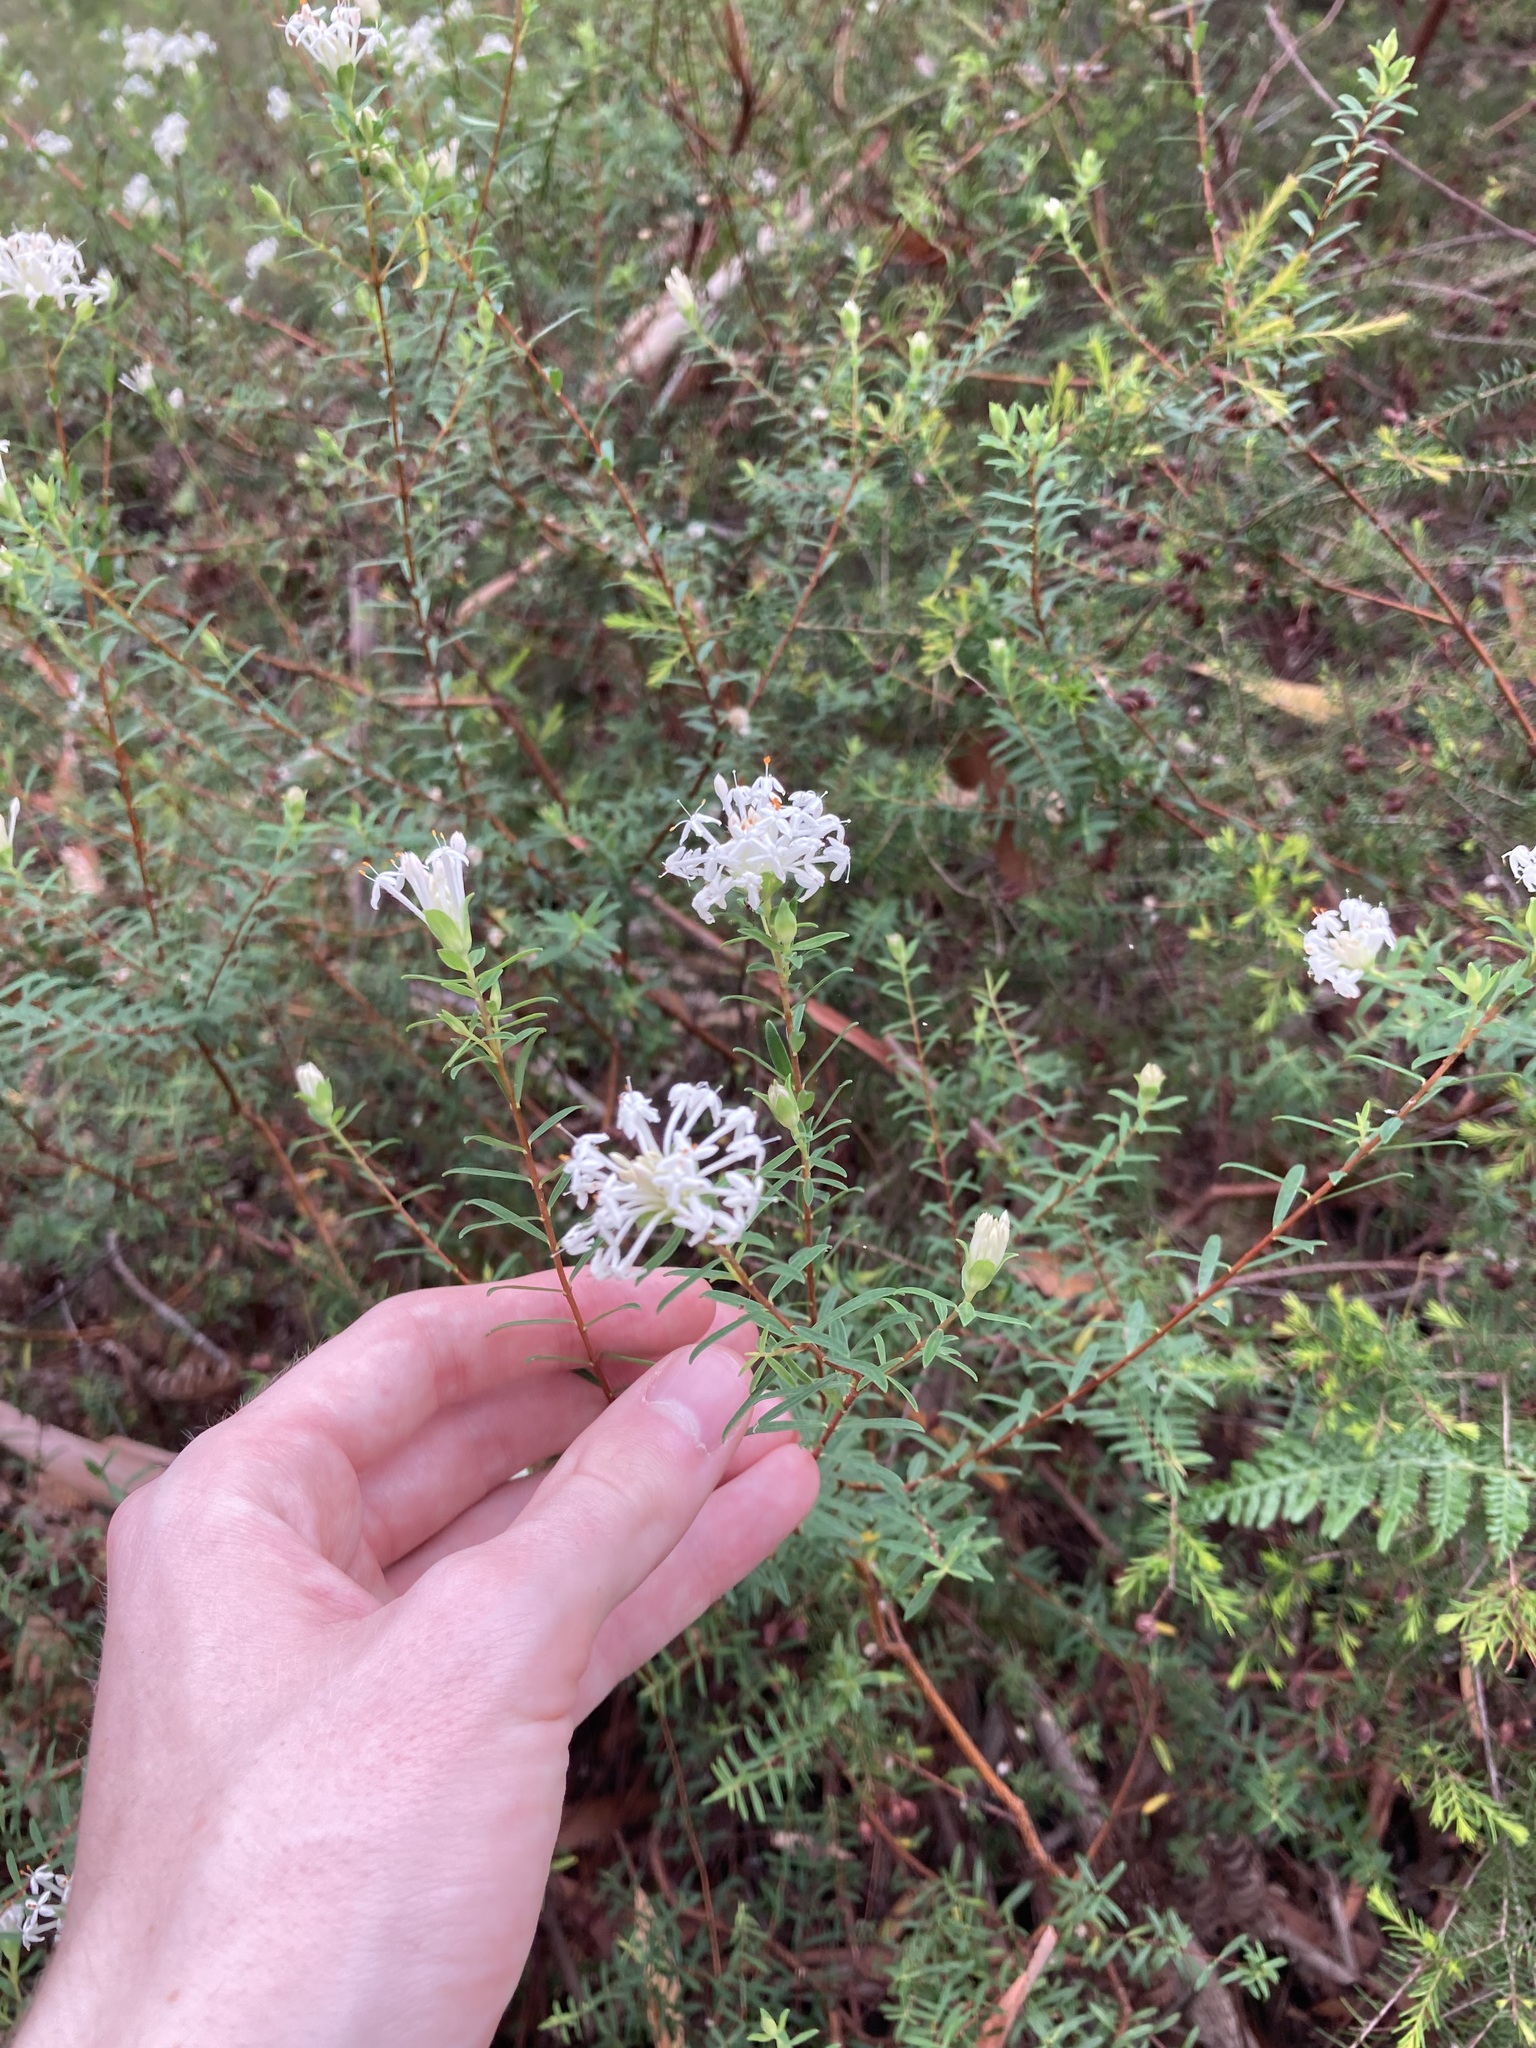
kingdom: Plantae
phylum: Tracheophyta
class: Magnoliopsida
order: Malvales
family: Thymelaeaceae
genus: Pimelea
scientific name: Pimelea linifolia
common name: Queen-of-the-bush
